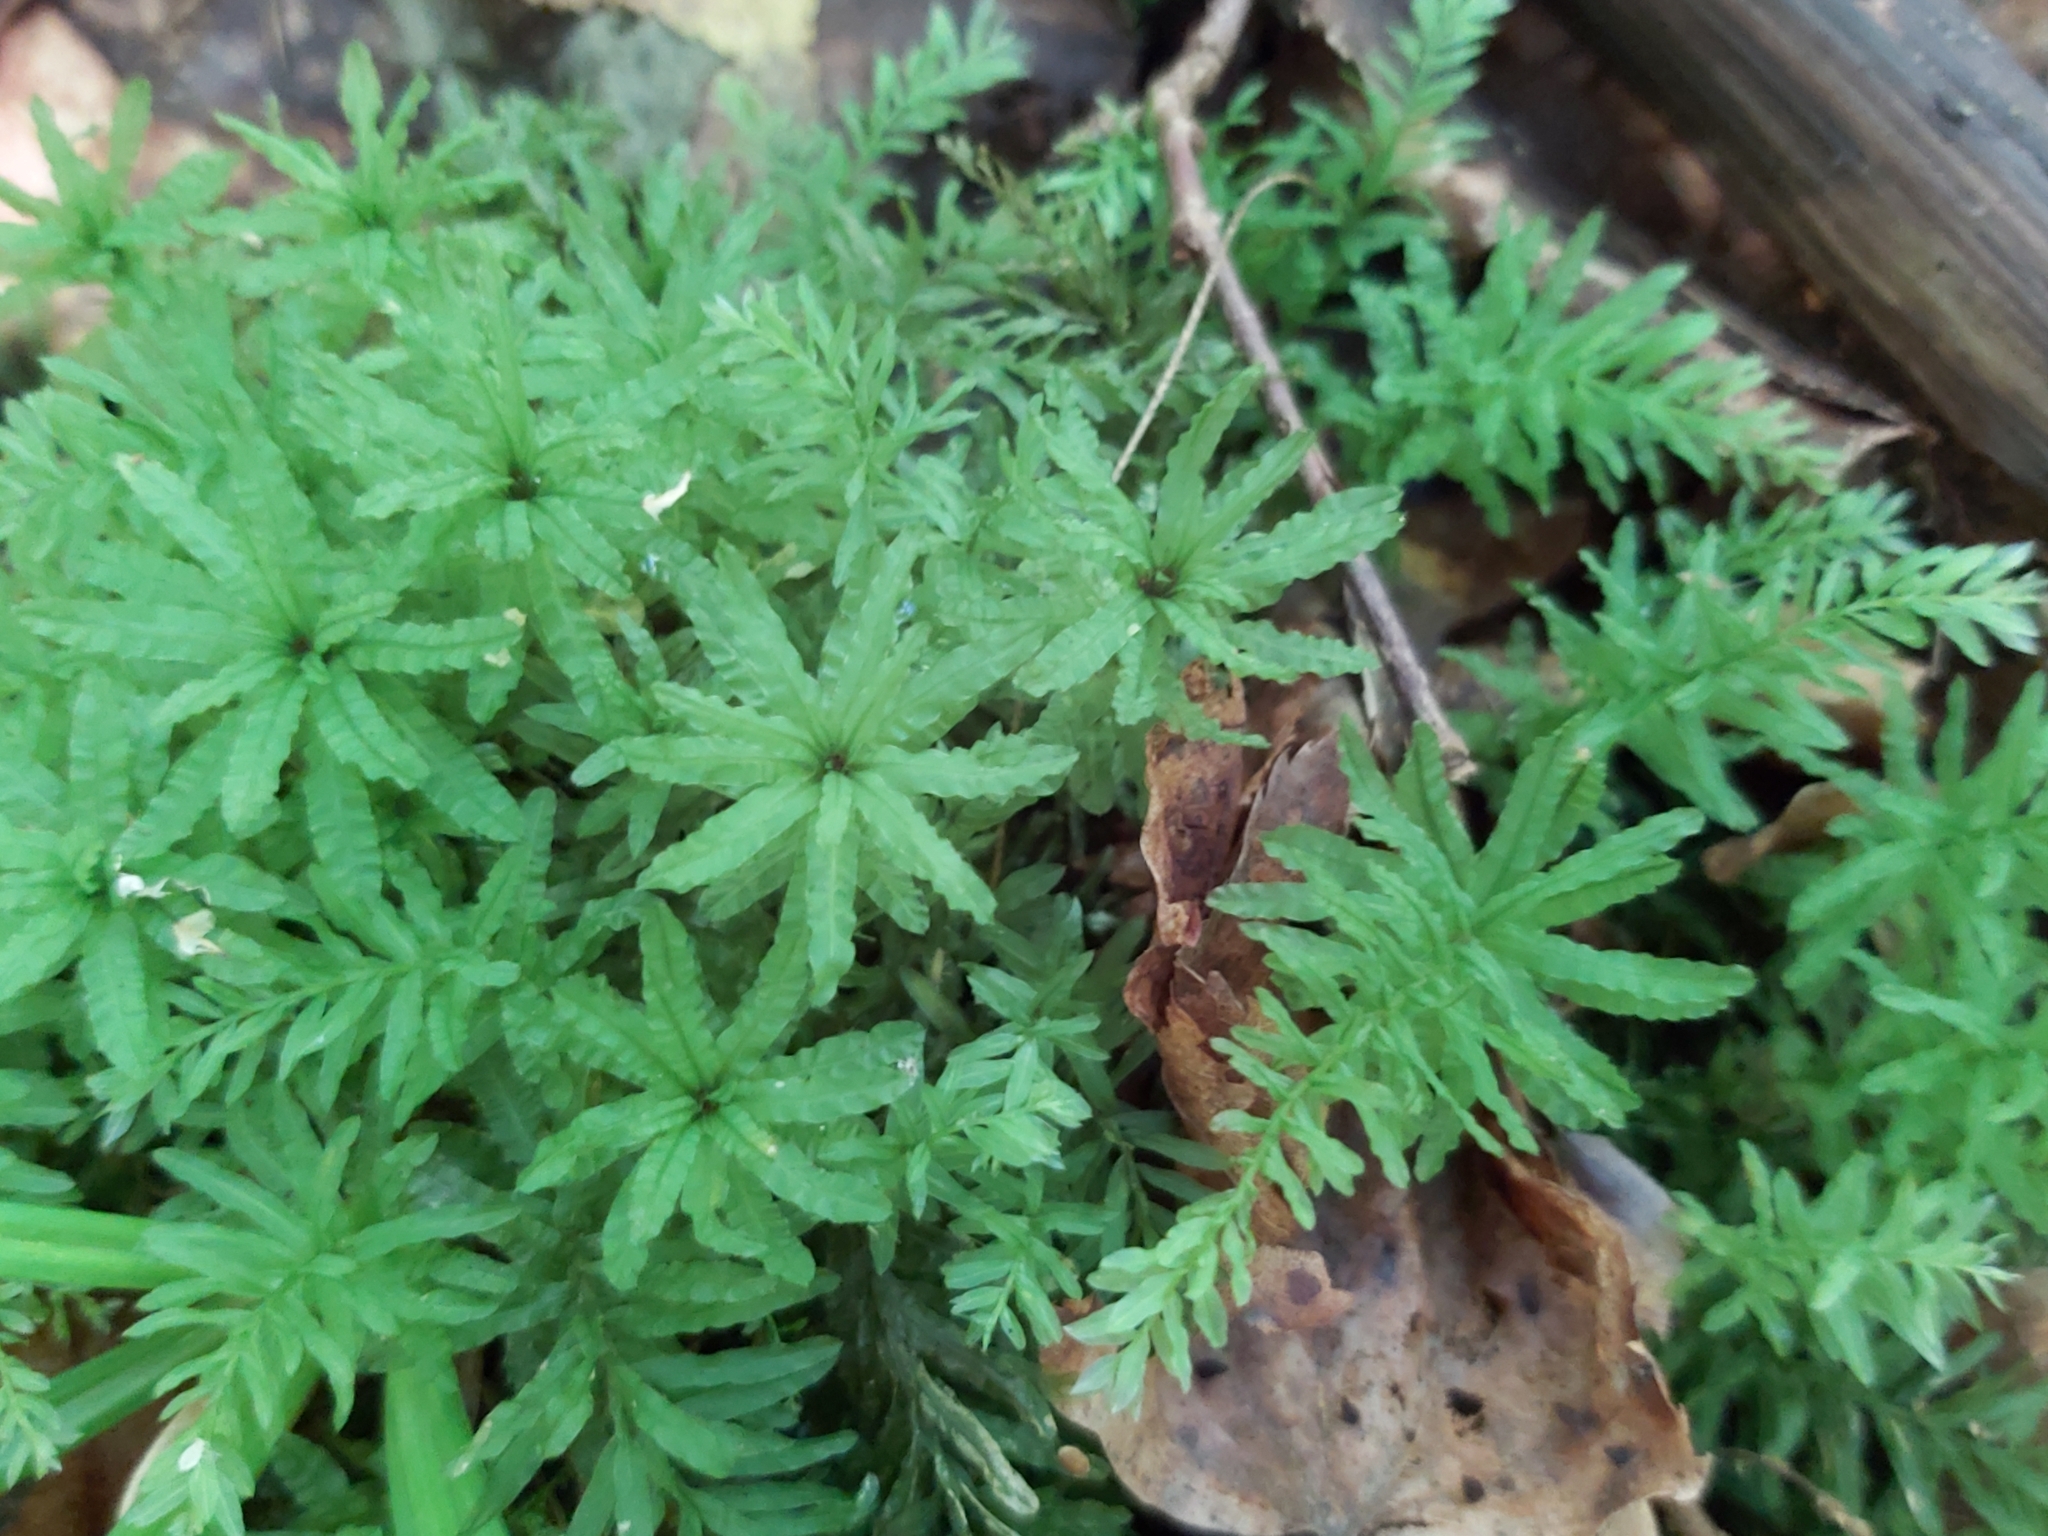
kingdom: Plantae
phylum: Bryophyta
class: Bryopsida
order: Bryales
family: Mniaceae
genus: Plagiomnium
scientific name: Plagiomnium undulatum
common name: Hart's-tongue thyme-moss
